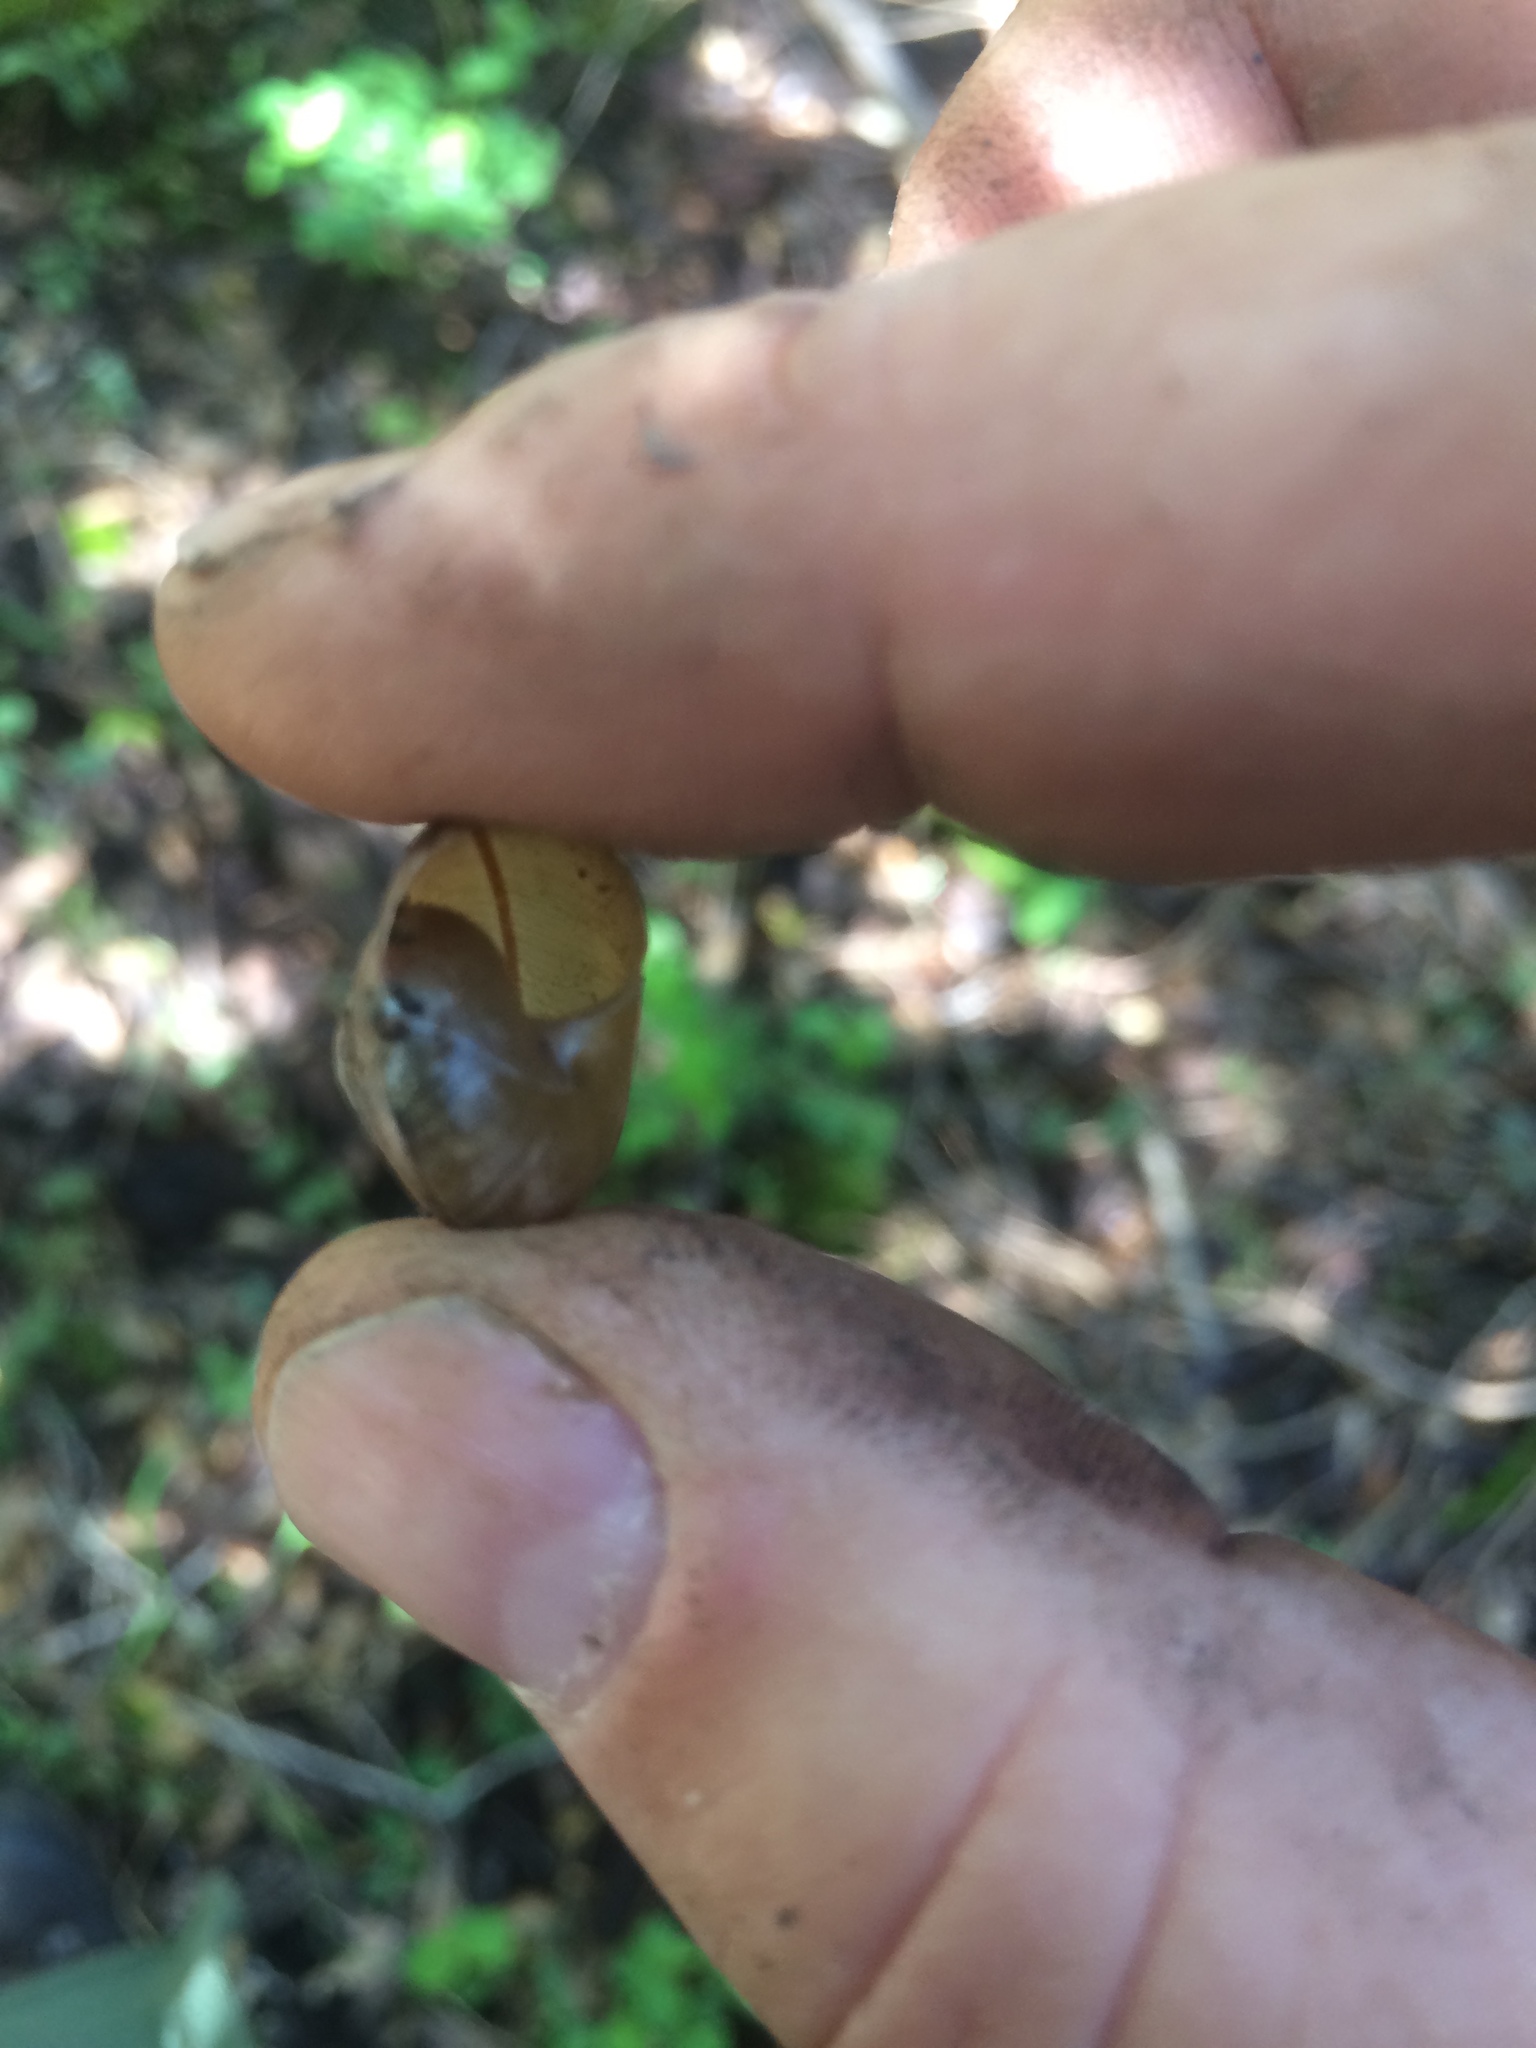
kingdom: Animalia
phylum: Mollusca
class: Gastropoda
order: Stylommatophora
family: Xanthonychidae
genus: Helminthoglypta
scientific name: Helminthoglypta sonoma
